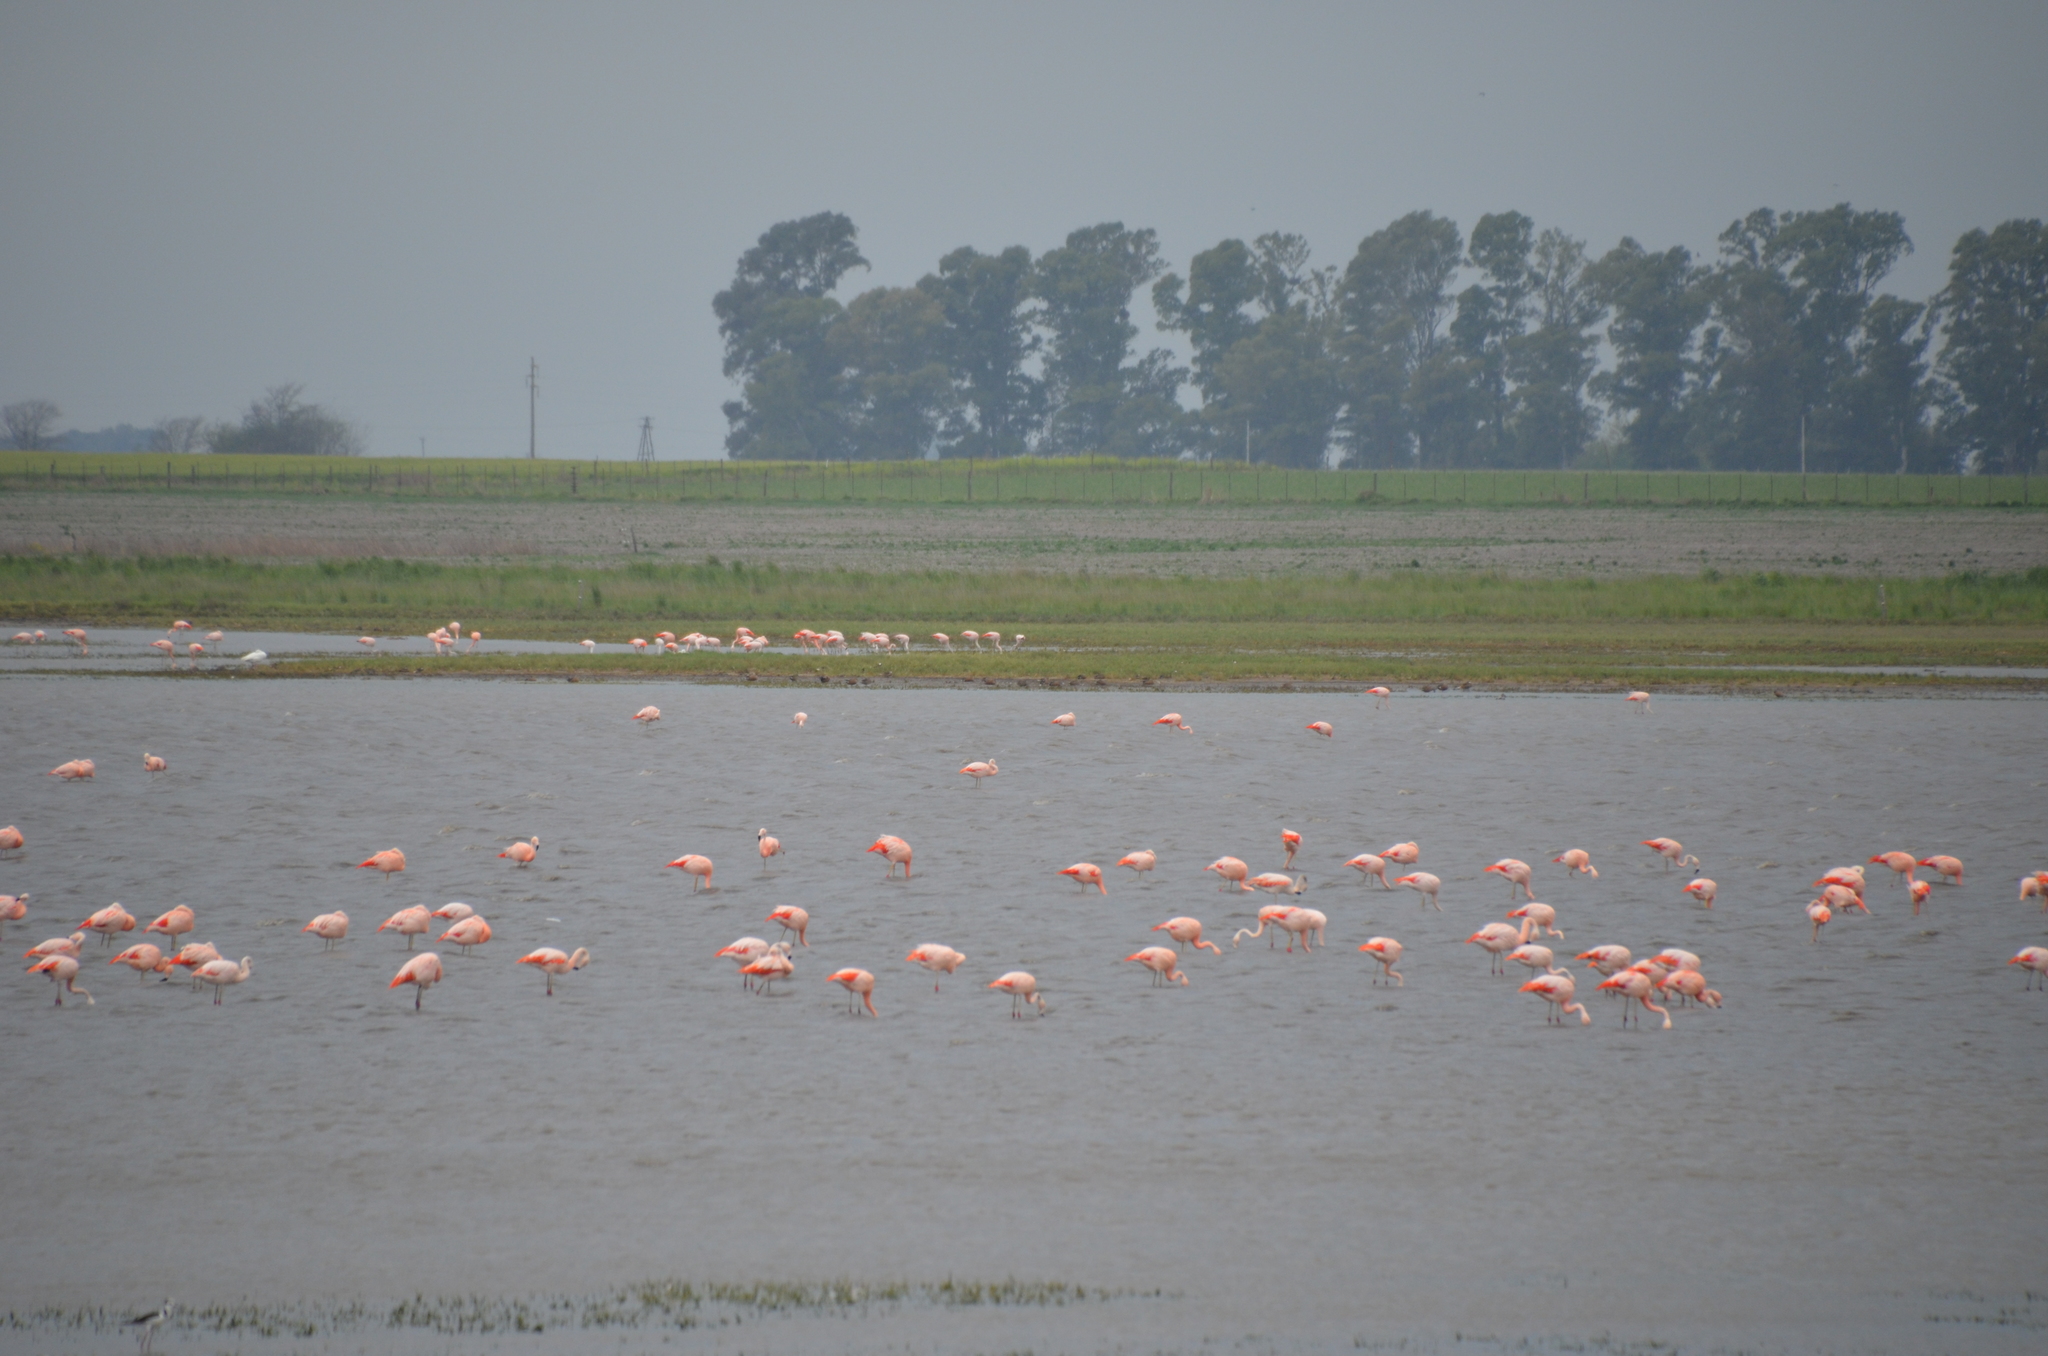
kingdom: Animalia
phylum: Chordata
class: Aves
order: Phoenicopteriformes
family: Phoenicopteridae
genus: Phoenicopterus
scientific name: Phoenicopterus chilensis
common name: Chilean flamingo
